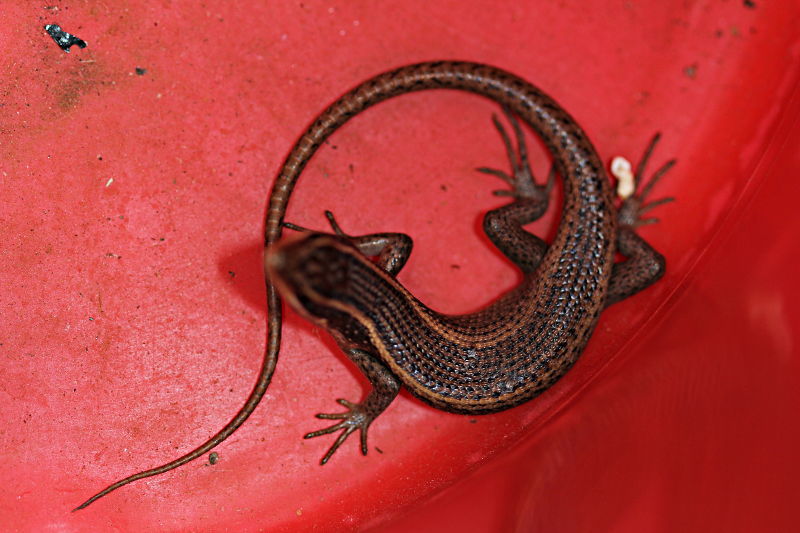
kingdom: Animalia
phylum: Chordata
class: Squamata
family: Scincidae
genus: Trachylepis
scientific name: Trachylepis punctatissima
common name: Montane speckled skink
